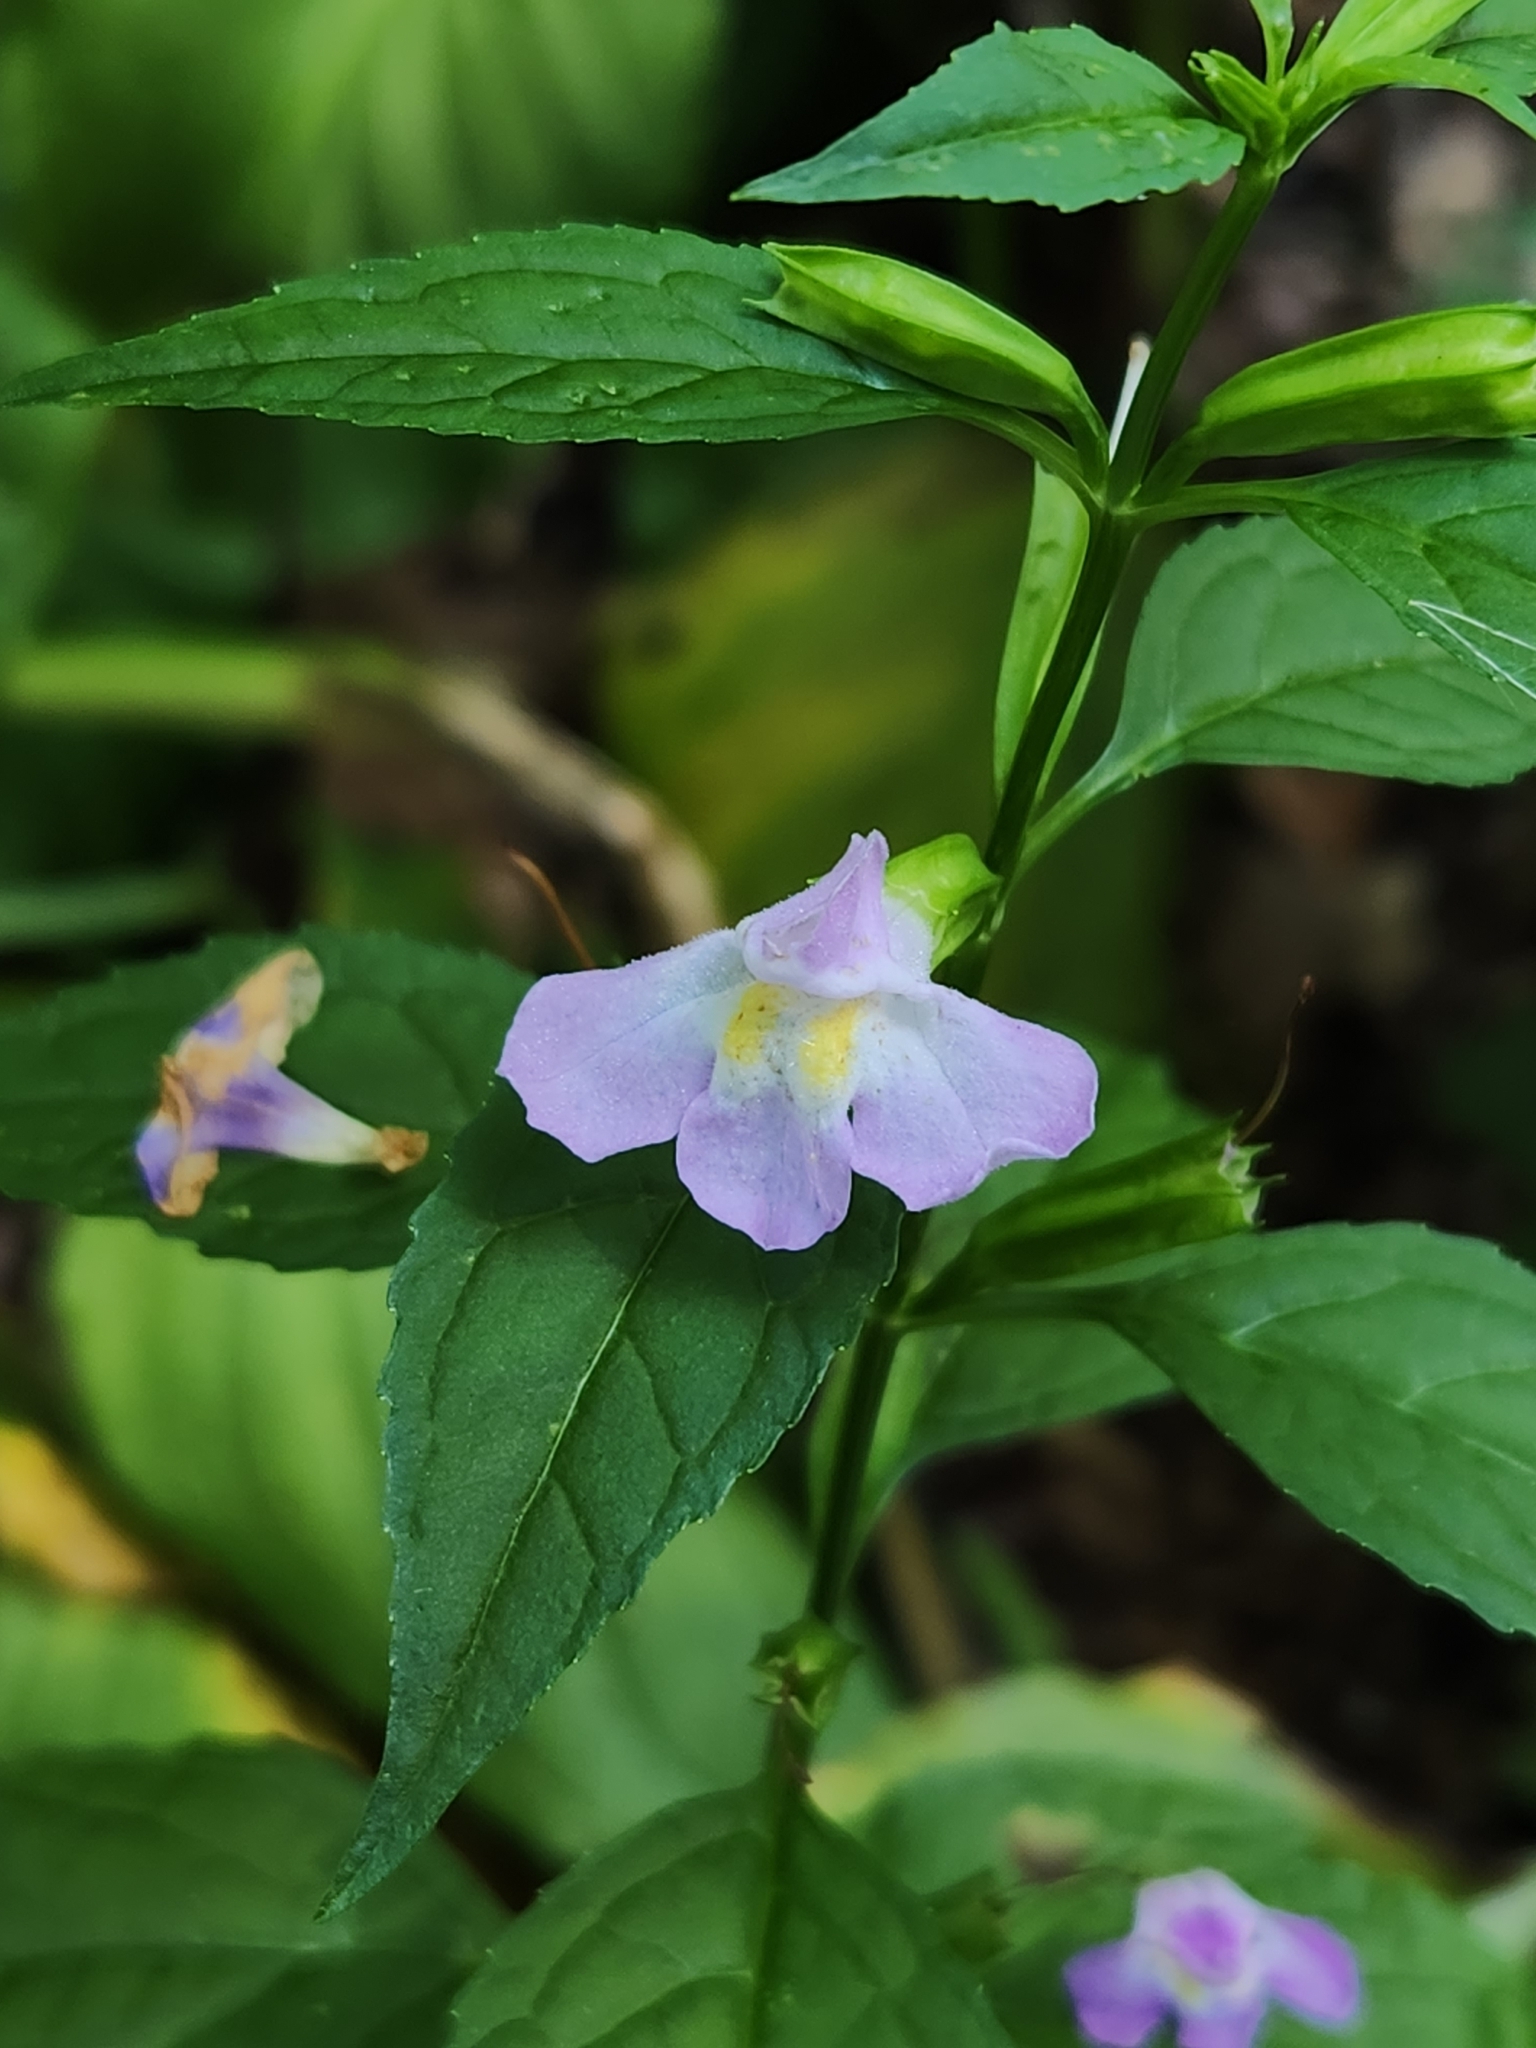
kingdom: Plantae
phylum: Tracheophyta
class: Magnoliopsida
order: Lamiales
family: Phrymaceae
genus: Mimulus
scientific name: Mimulus alatus
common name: Sharp-wing monkey-flower
